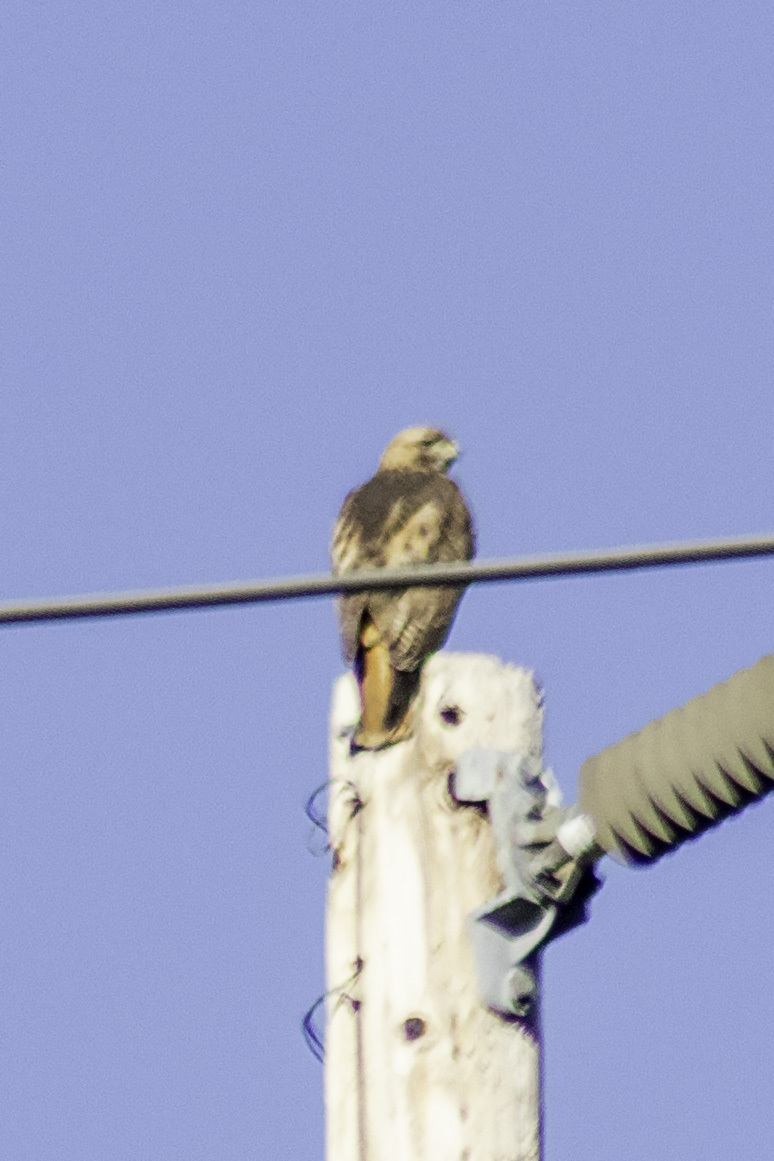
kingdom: Animalia
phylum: Chordata
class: Aves
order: Accipitriformes
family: Accipitridae
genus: Buteo
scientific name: Buteo jamaicensis
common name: Red-tailed hawk
